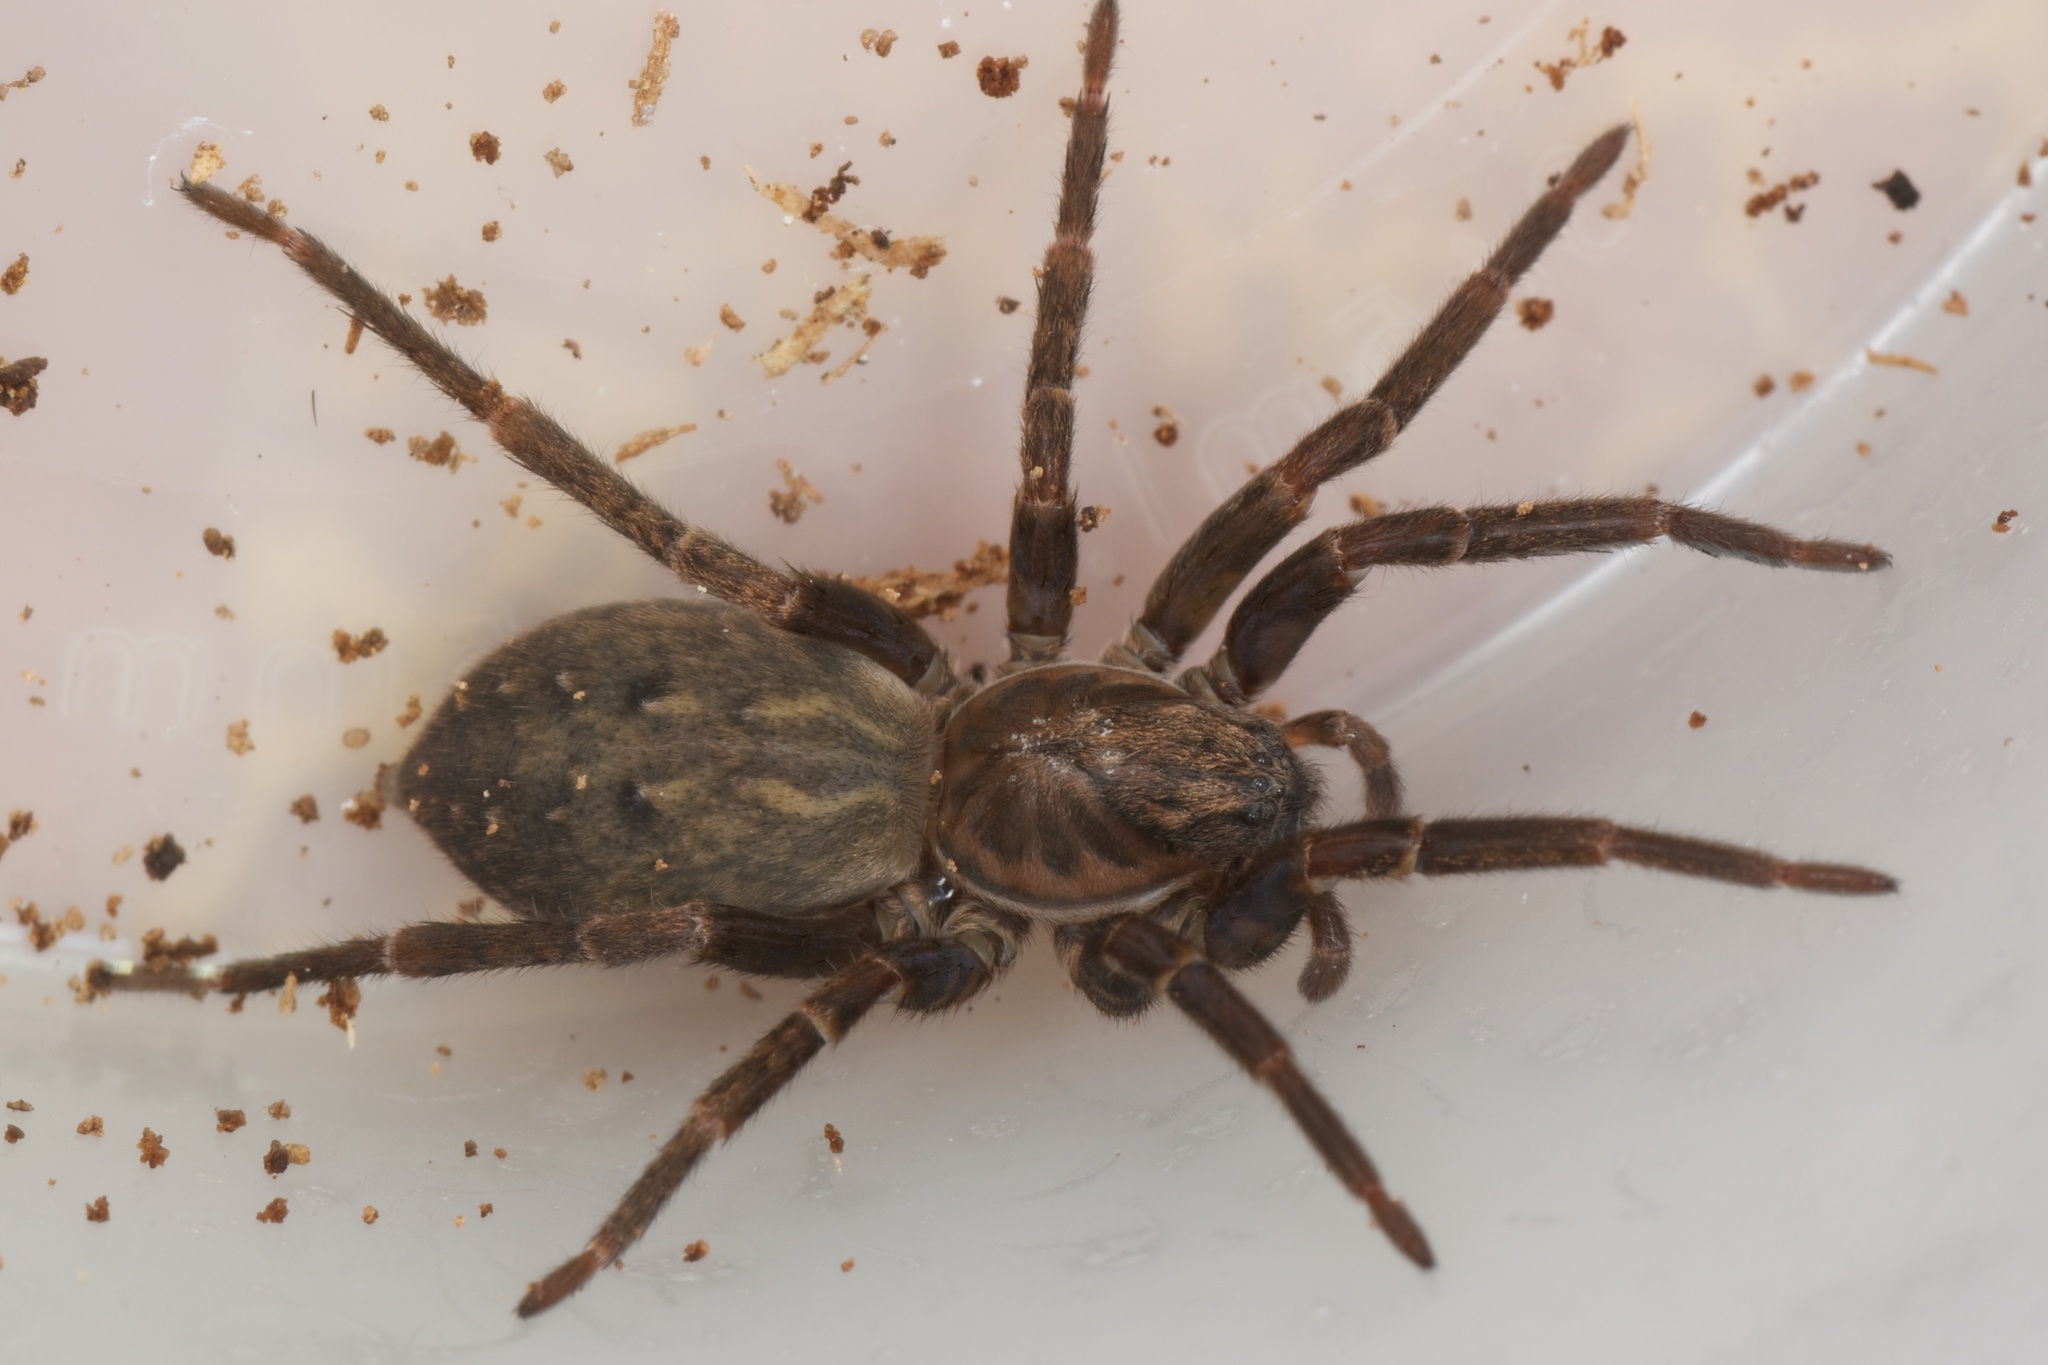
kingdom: Animalia
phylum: Arthropoda
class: Arachnida
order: Araneae
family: Zoropsidae
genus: Uliodon
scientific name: Uliodon albopunctatus
